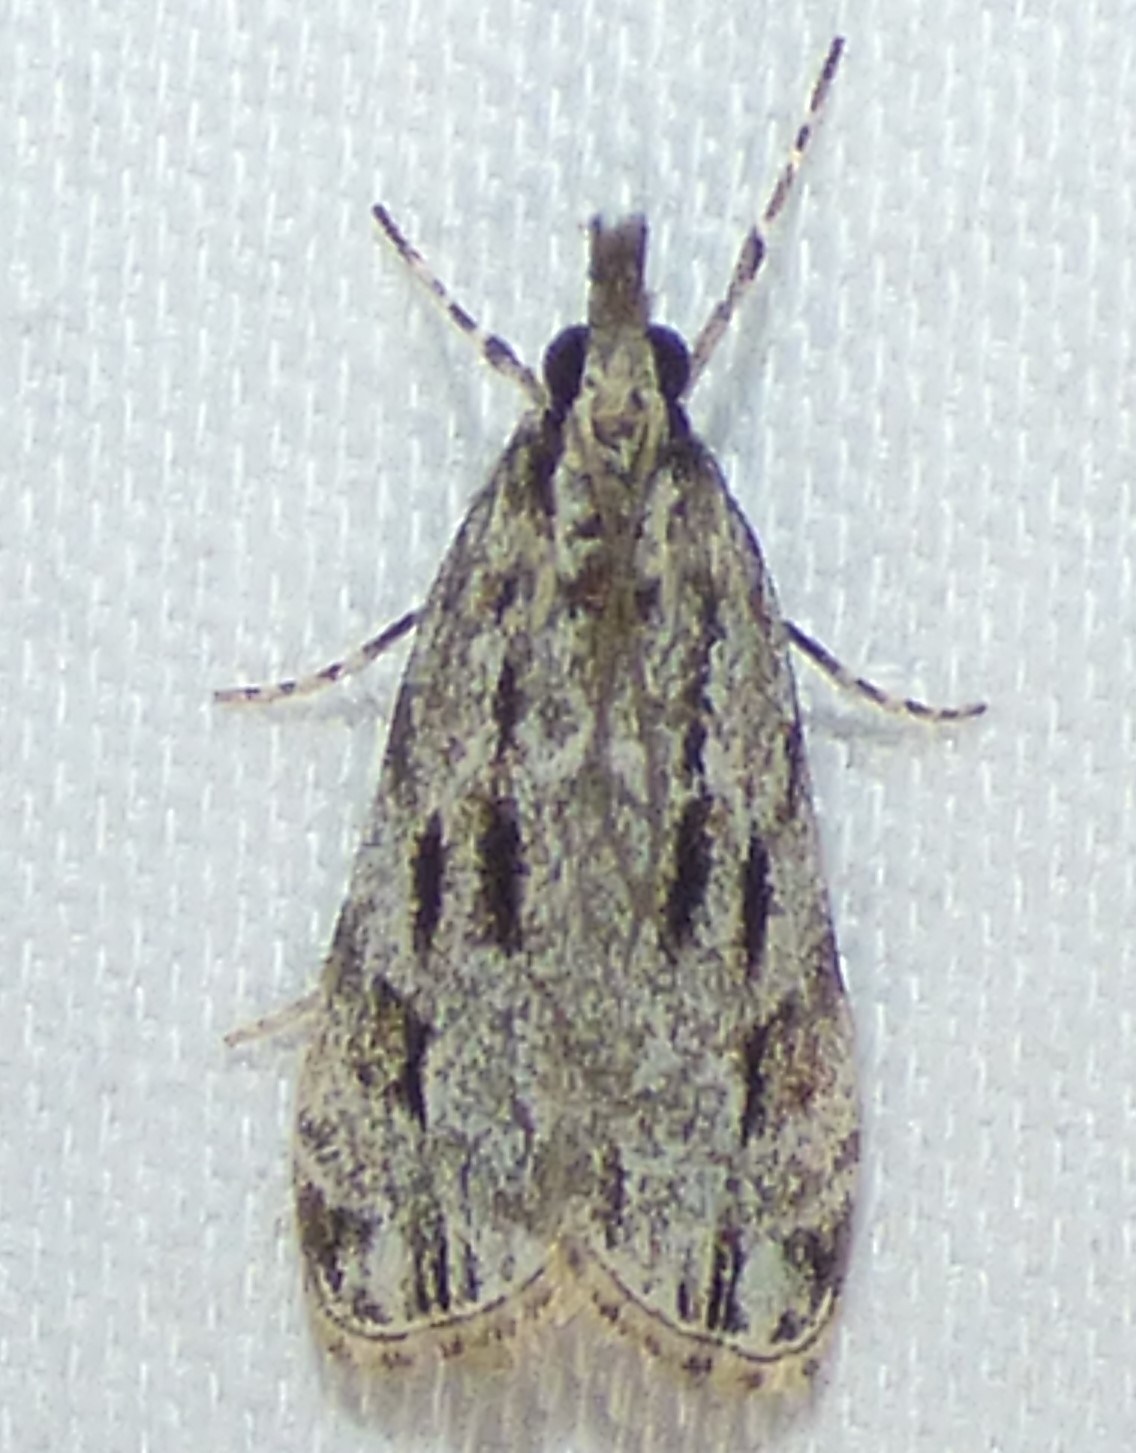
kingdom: Animalia
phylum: Arthropoda
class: Insecta
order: Lepidoptera
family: Crambidae
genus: Eudonia
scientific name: Eudonia strigalis
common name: Striped eudonia moth
